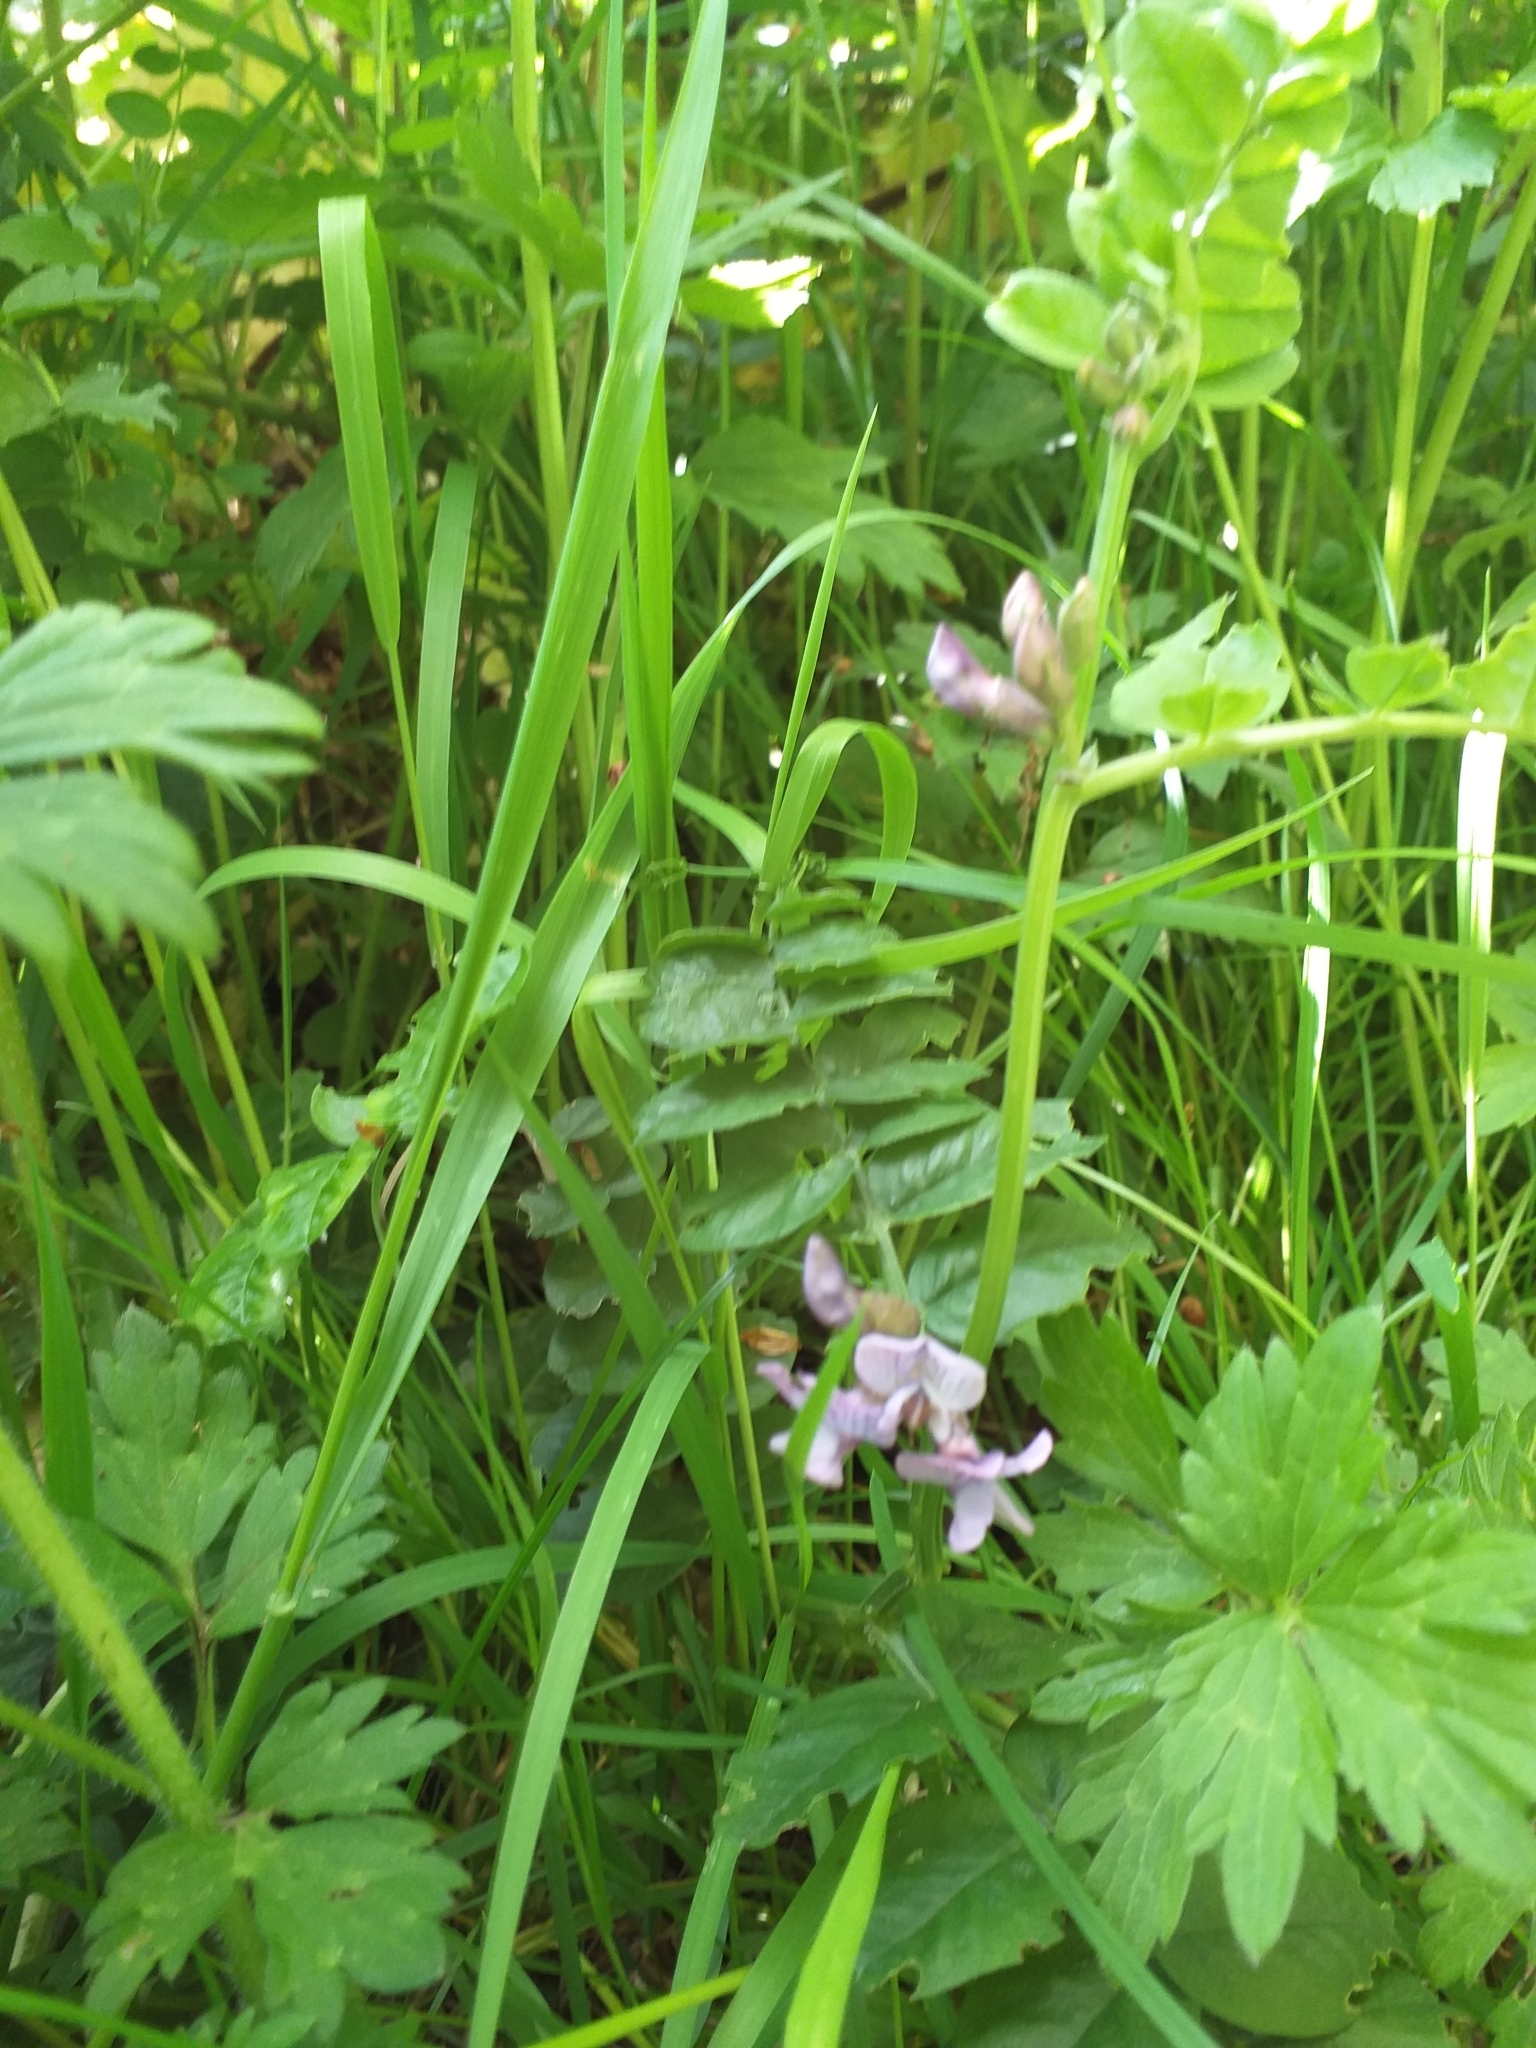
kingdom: Plantae
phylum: Tracheophyta
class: Magnoliopsida
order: Fabales
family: Fabaceae
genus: Vicia
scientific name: Vicia sepium
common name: Bush vetch
